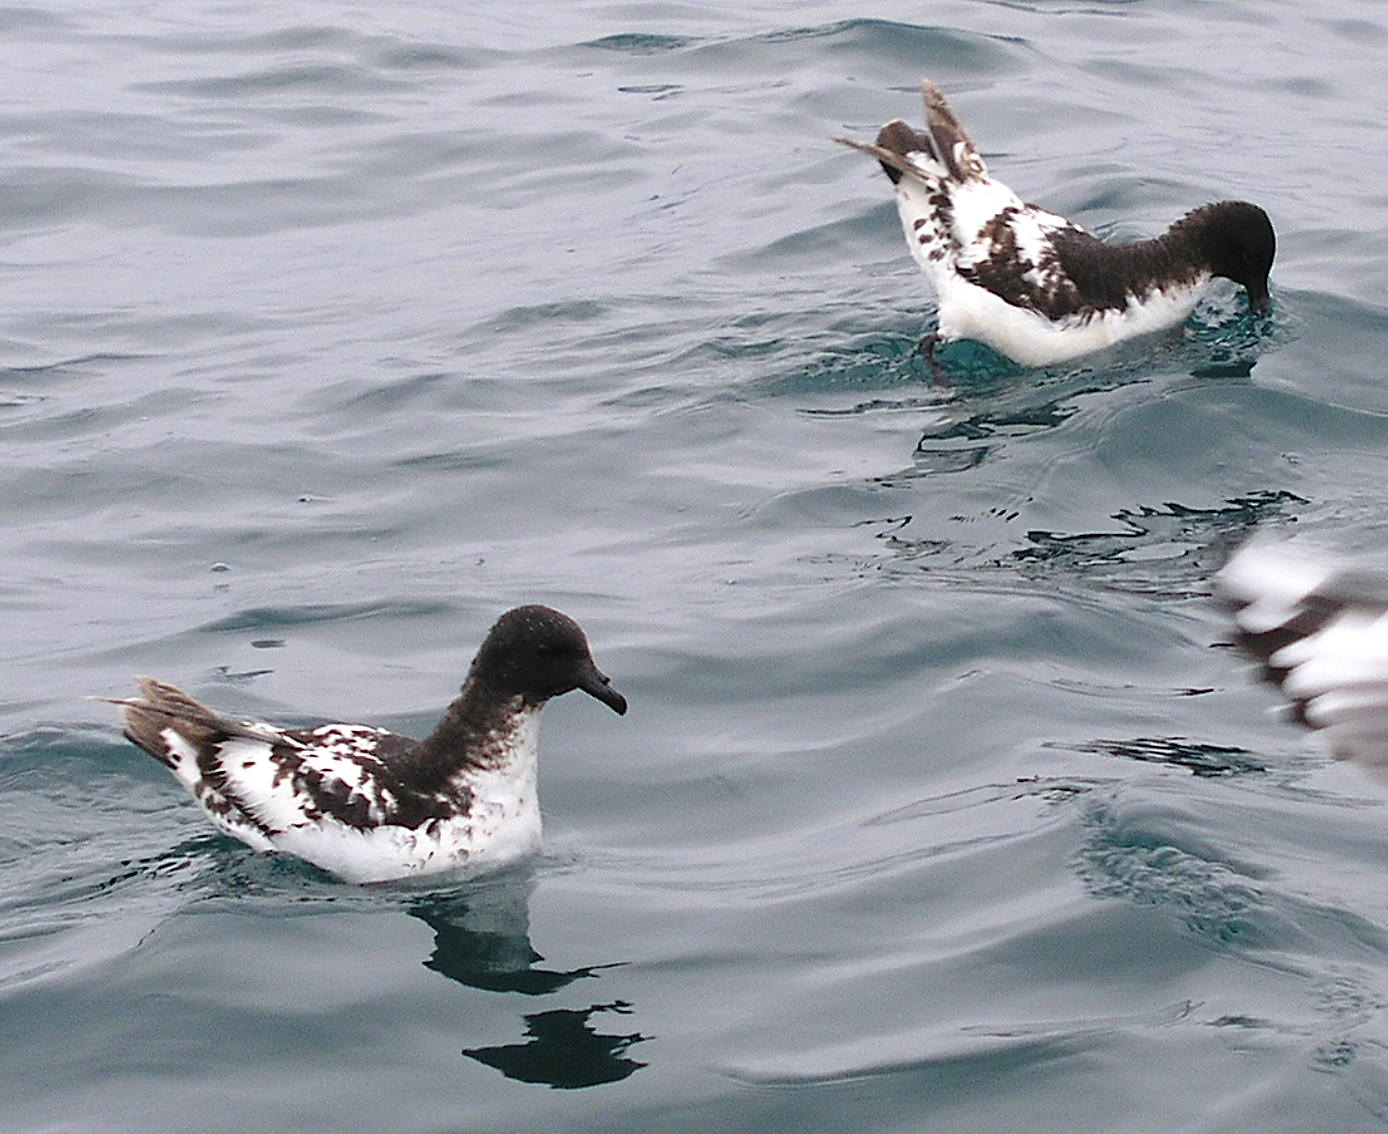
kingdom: Animalia
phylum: Chordata
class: Aves
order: Procellariiformes
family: Procellariidae
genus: Daption
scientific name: Daption capense
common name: Cape petrel
